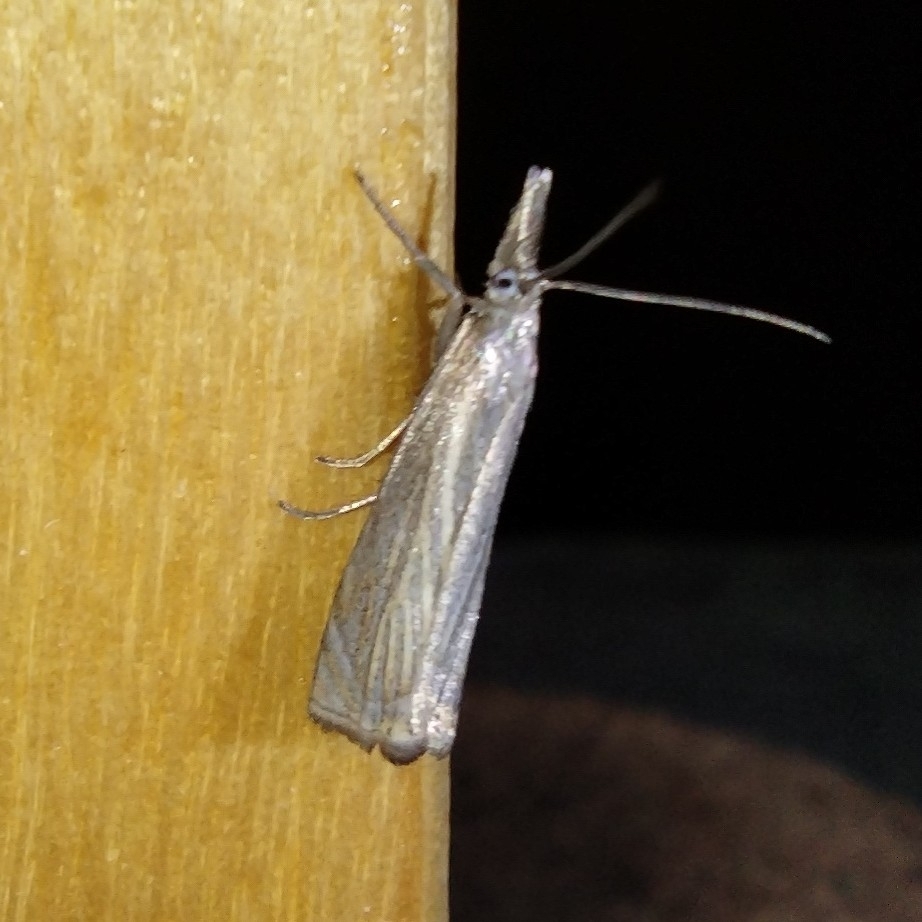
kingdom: Animalia
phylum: Arthropoda
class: Insecta
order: Lepidoptera
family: Crambidae
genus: Chrysoteuchia
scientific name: Chrysoteuchia culmella
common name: Garden grass-veneer
